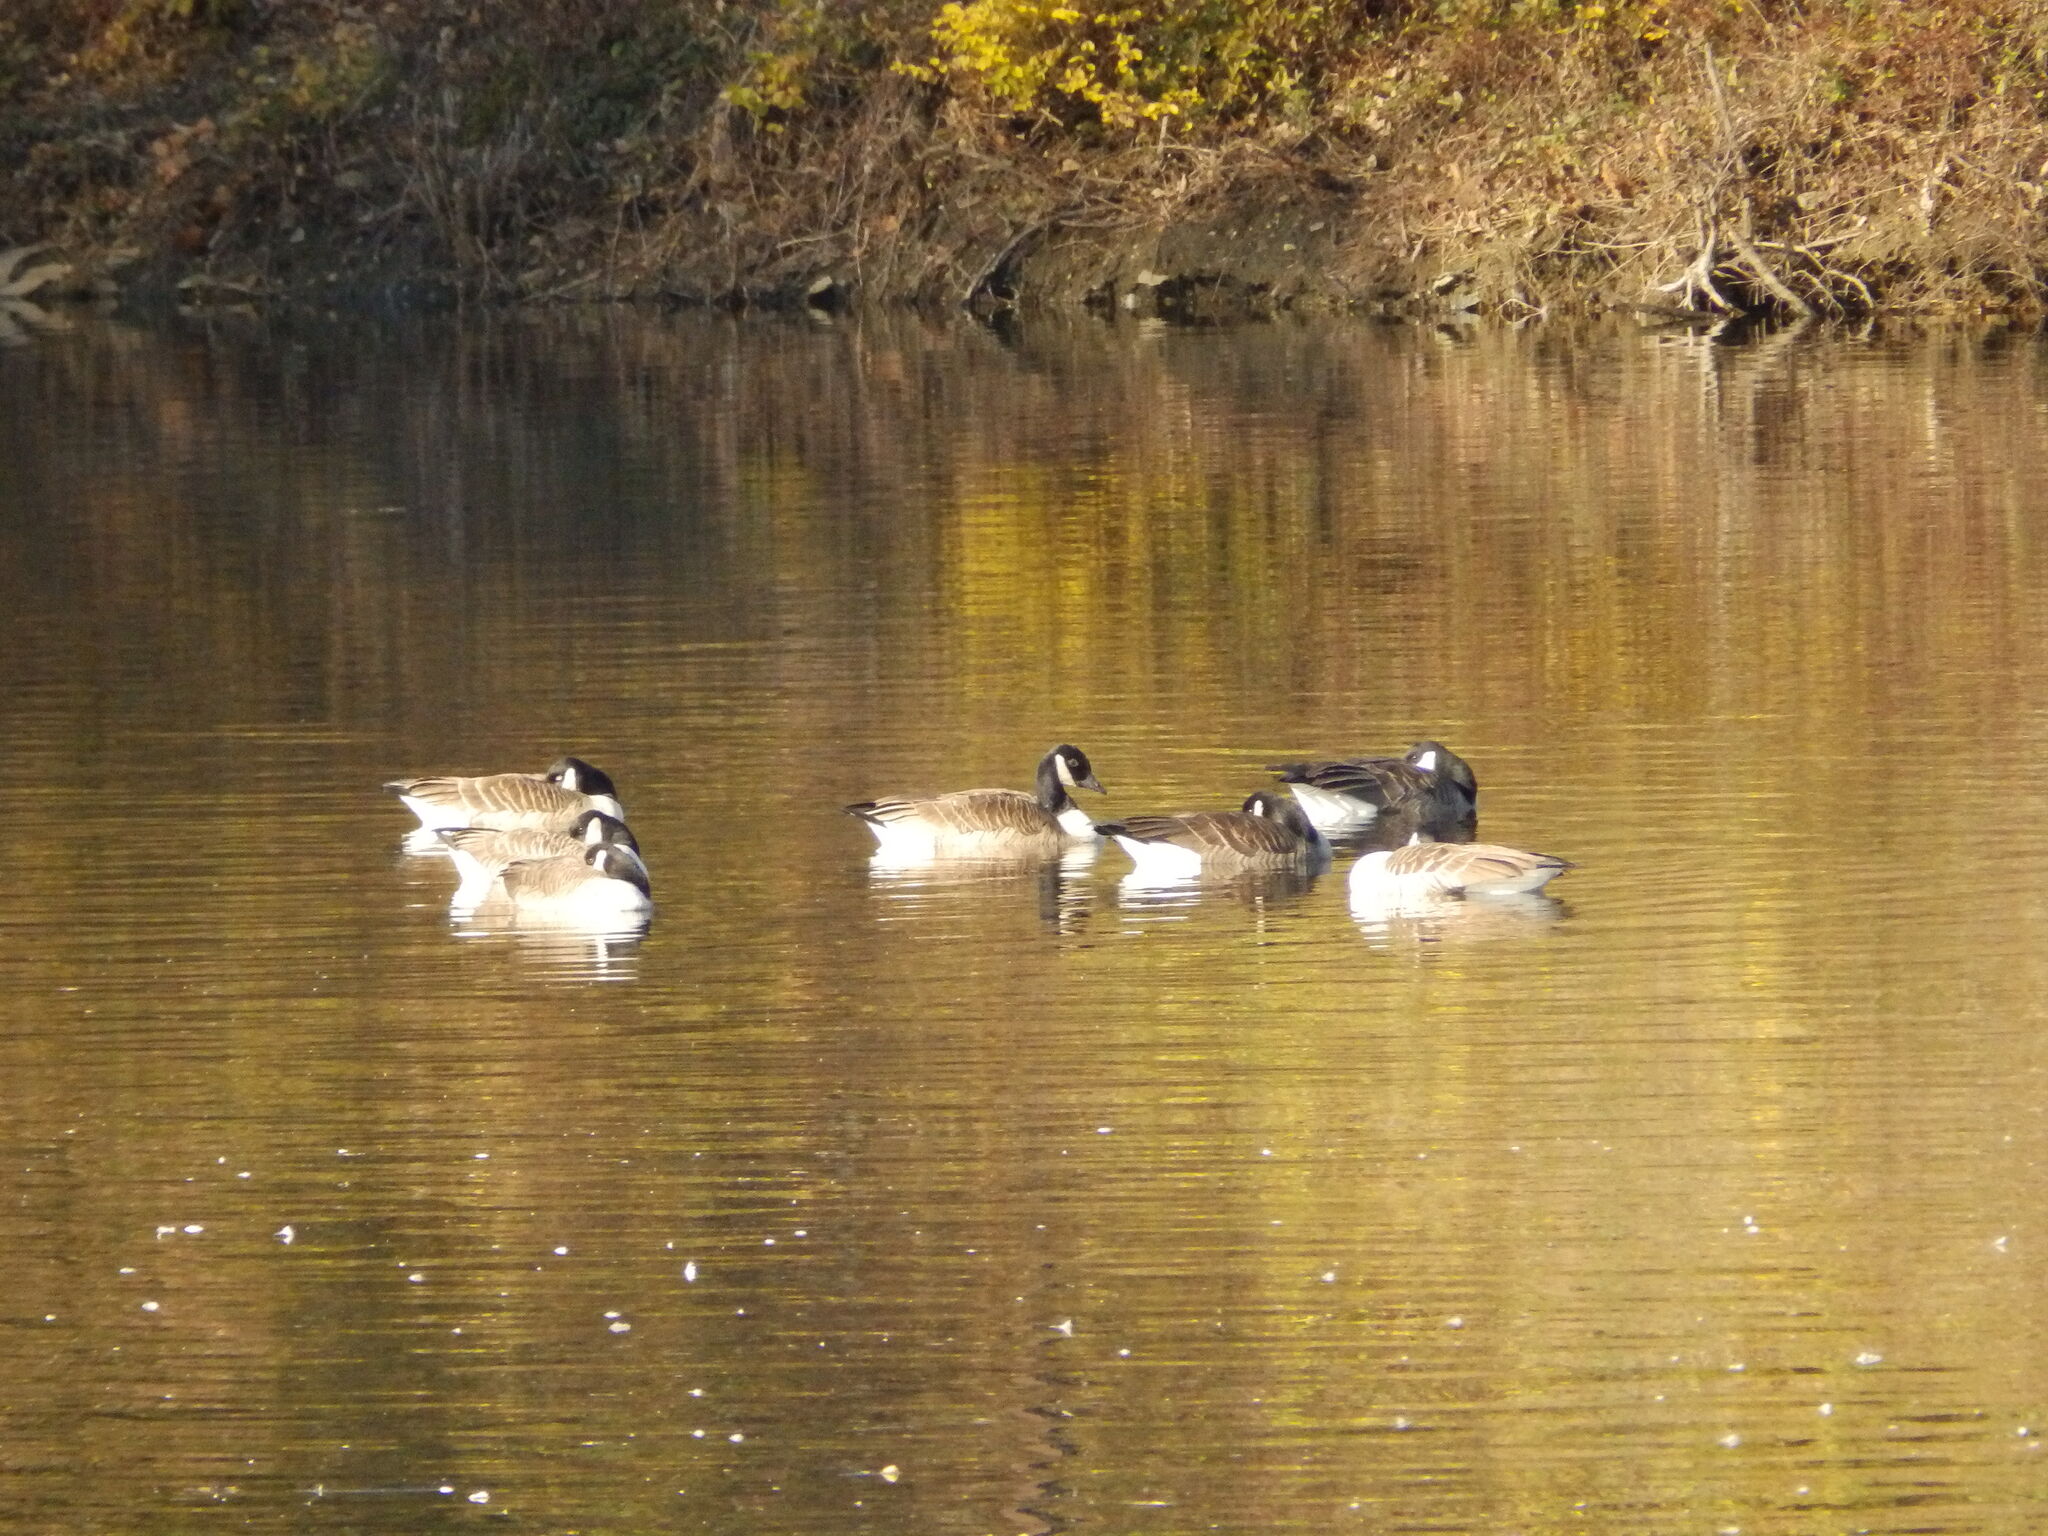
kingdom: Animalia
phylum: Chordata
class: Aves
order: Anseriformes
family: Anatidae
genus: Branta
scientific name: Branta canadensis
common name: Canada goose
